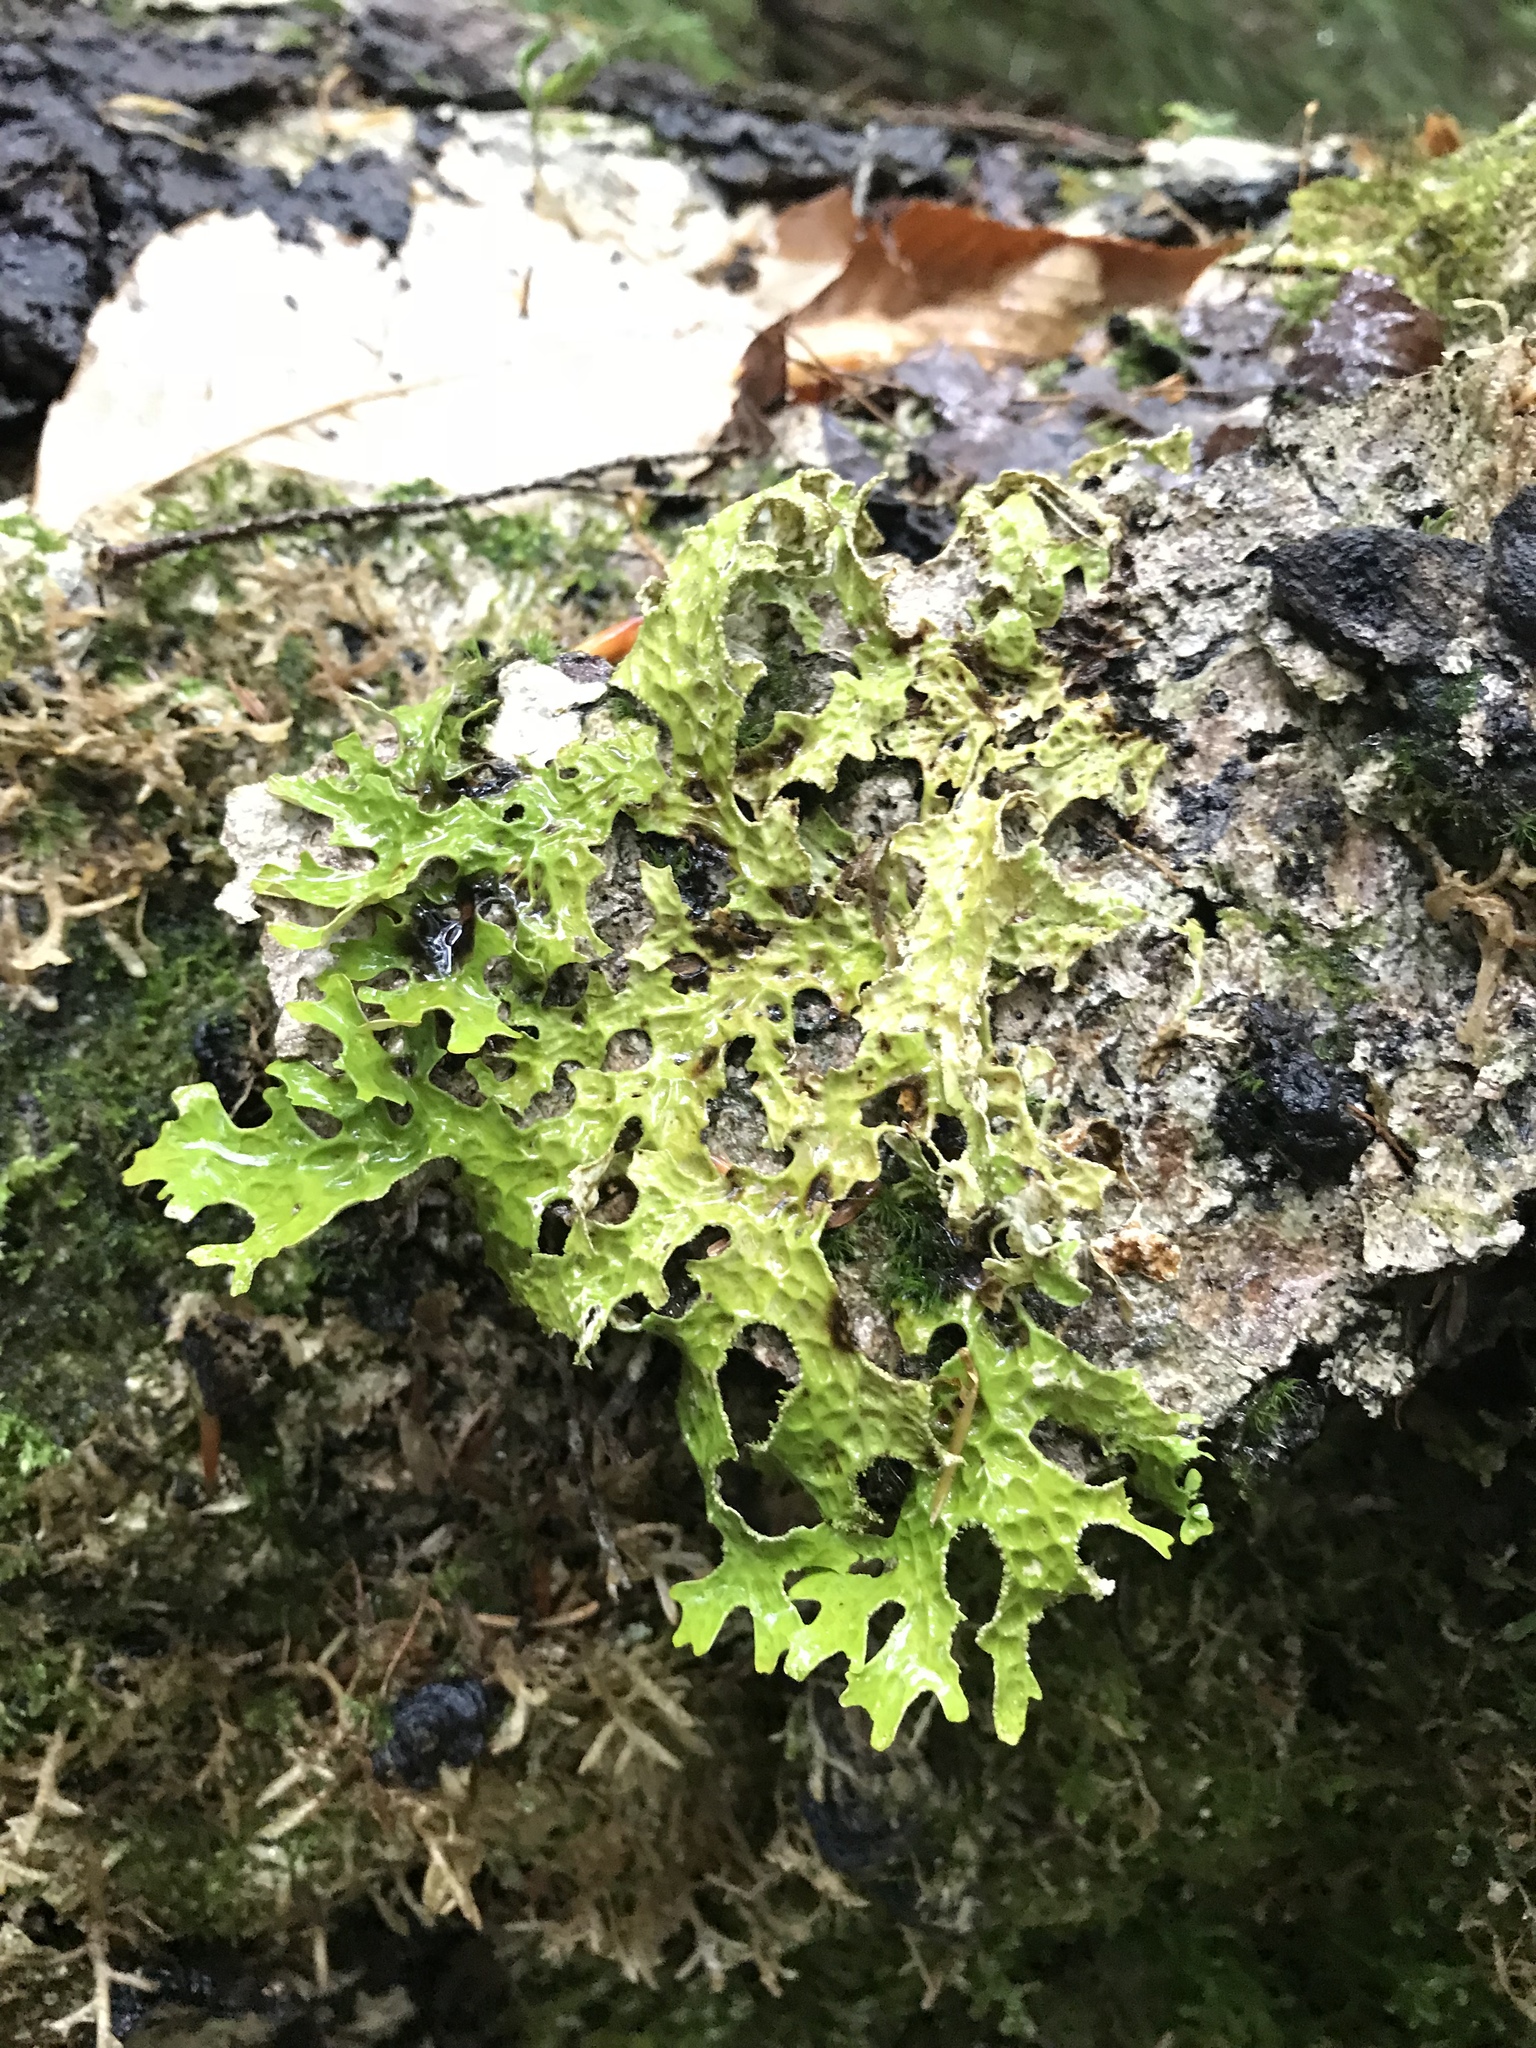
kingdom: Fungi
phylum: Ascomycota
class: Lecanoromycetes
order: Peltigerales
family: Lobariaceae
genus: Lobaria
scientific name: Lobaria pulmonaria
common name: Lungwort
